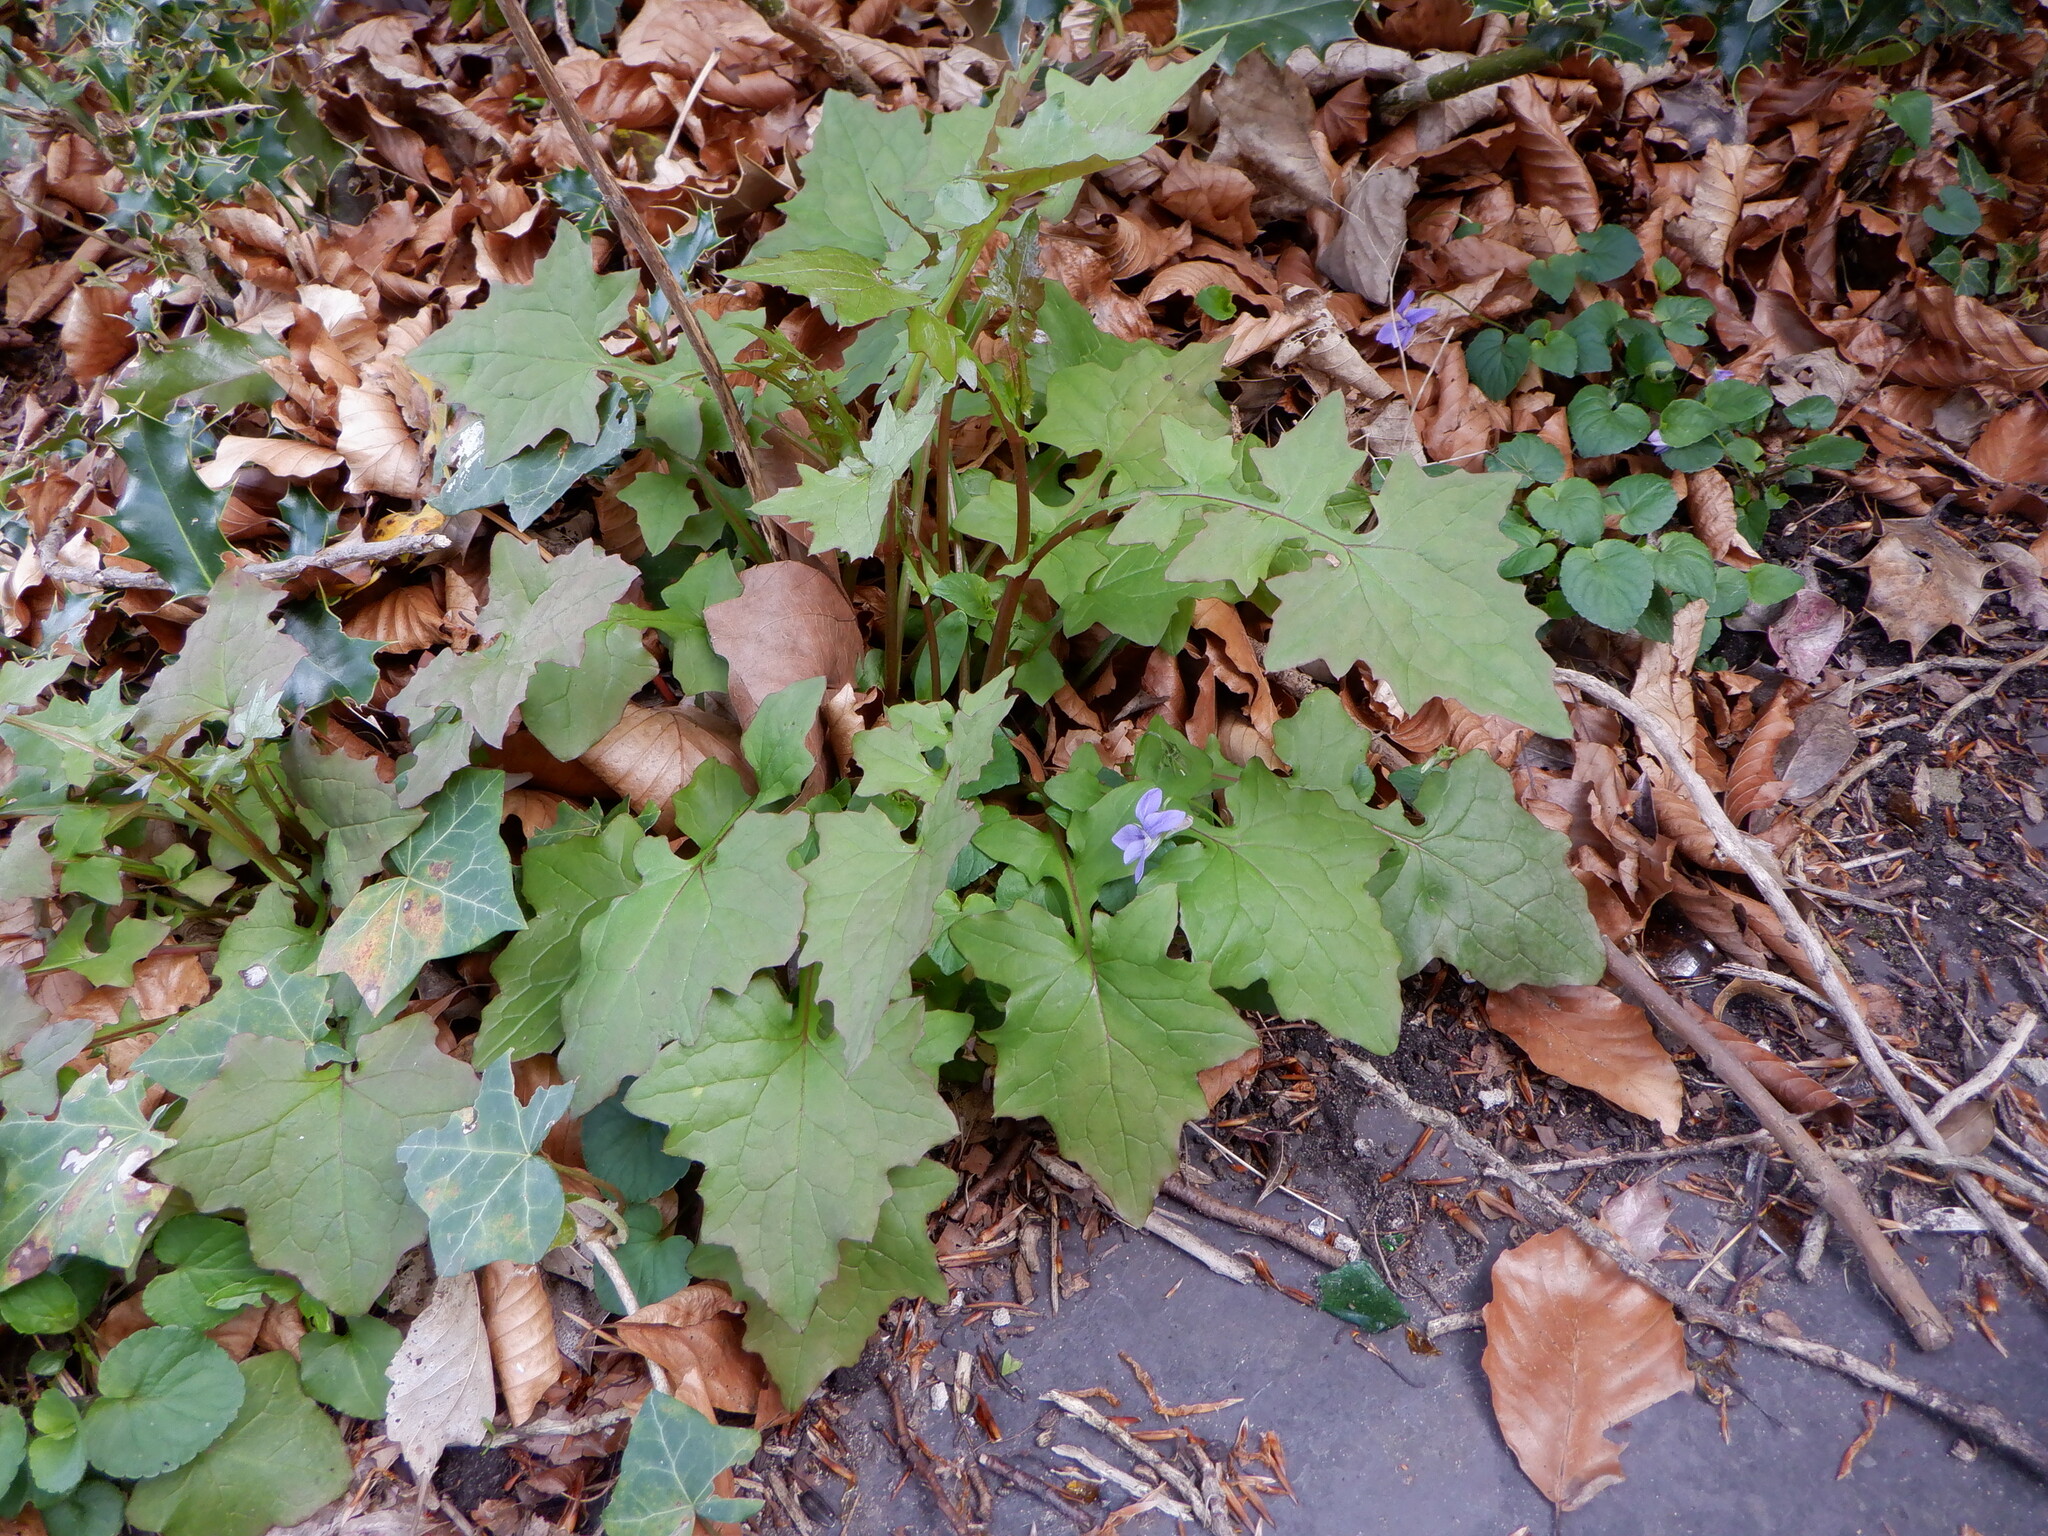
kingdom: Plantae
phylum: Tracheophyta
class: Magnoliopsida
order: Asterales
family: Asteraceae
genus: Mycelis
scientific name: Mycelis muralis
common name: Wall lettuce
